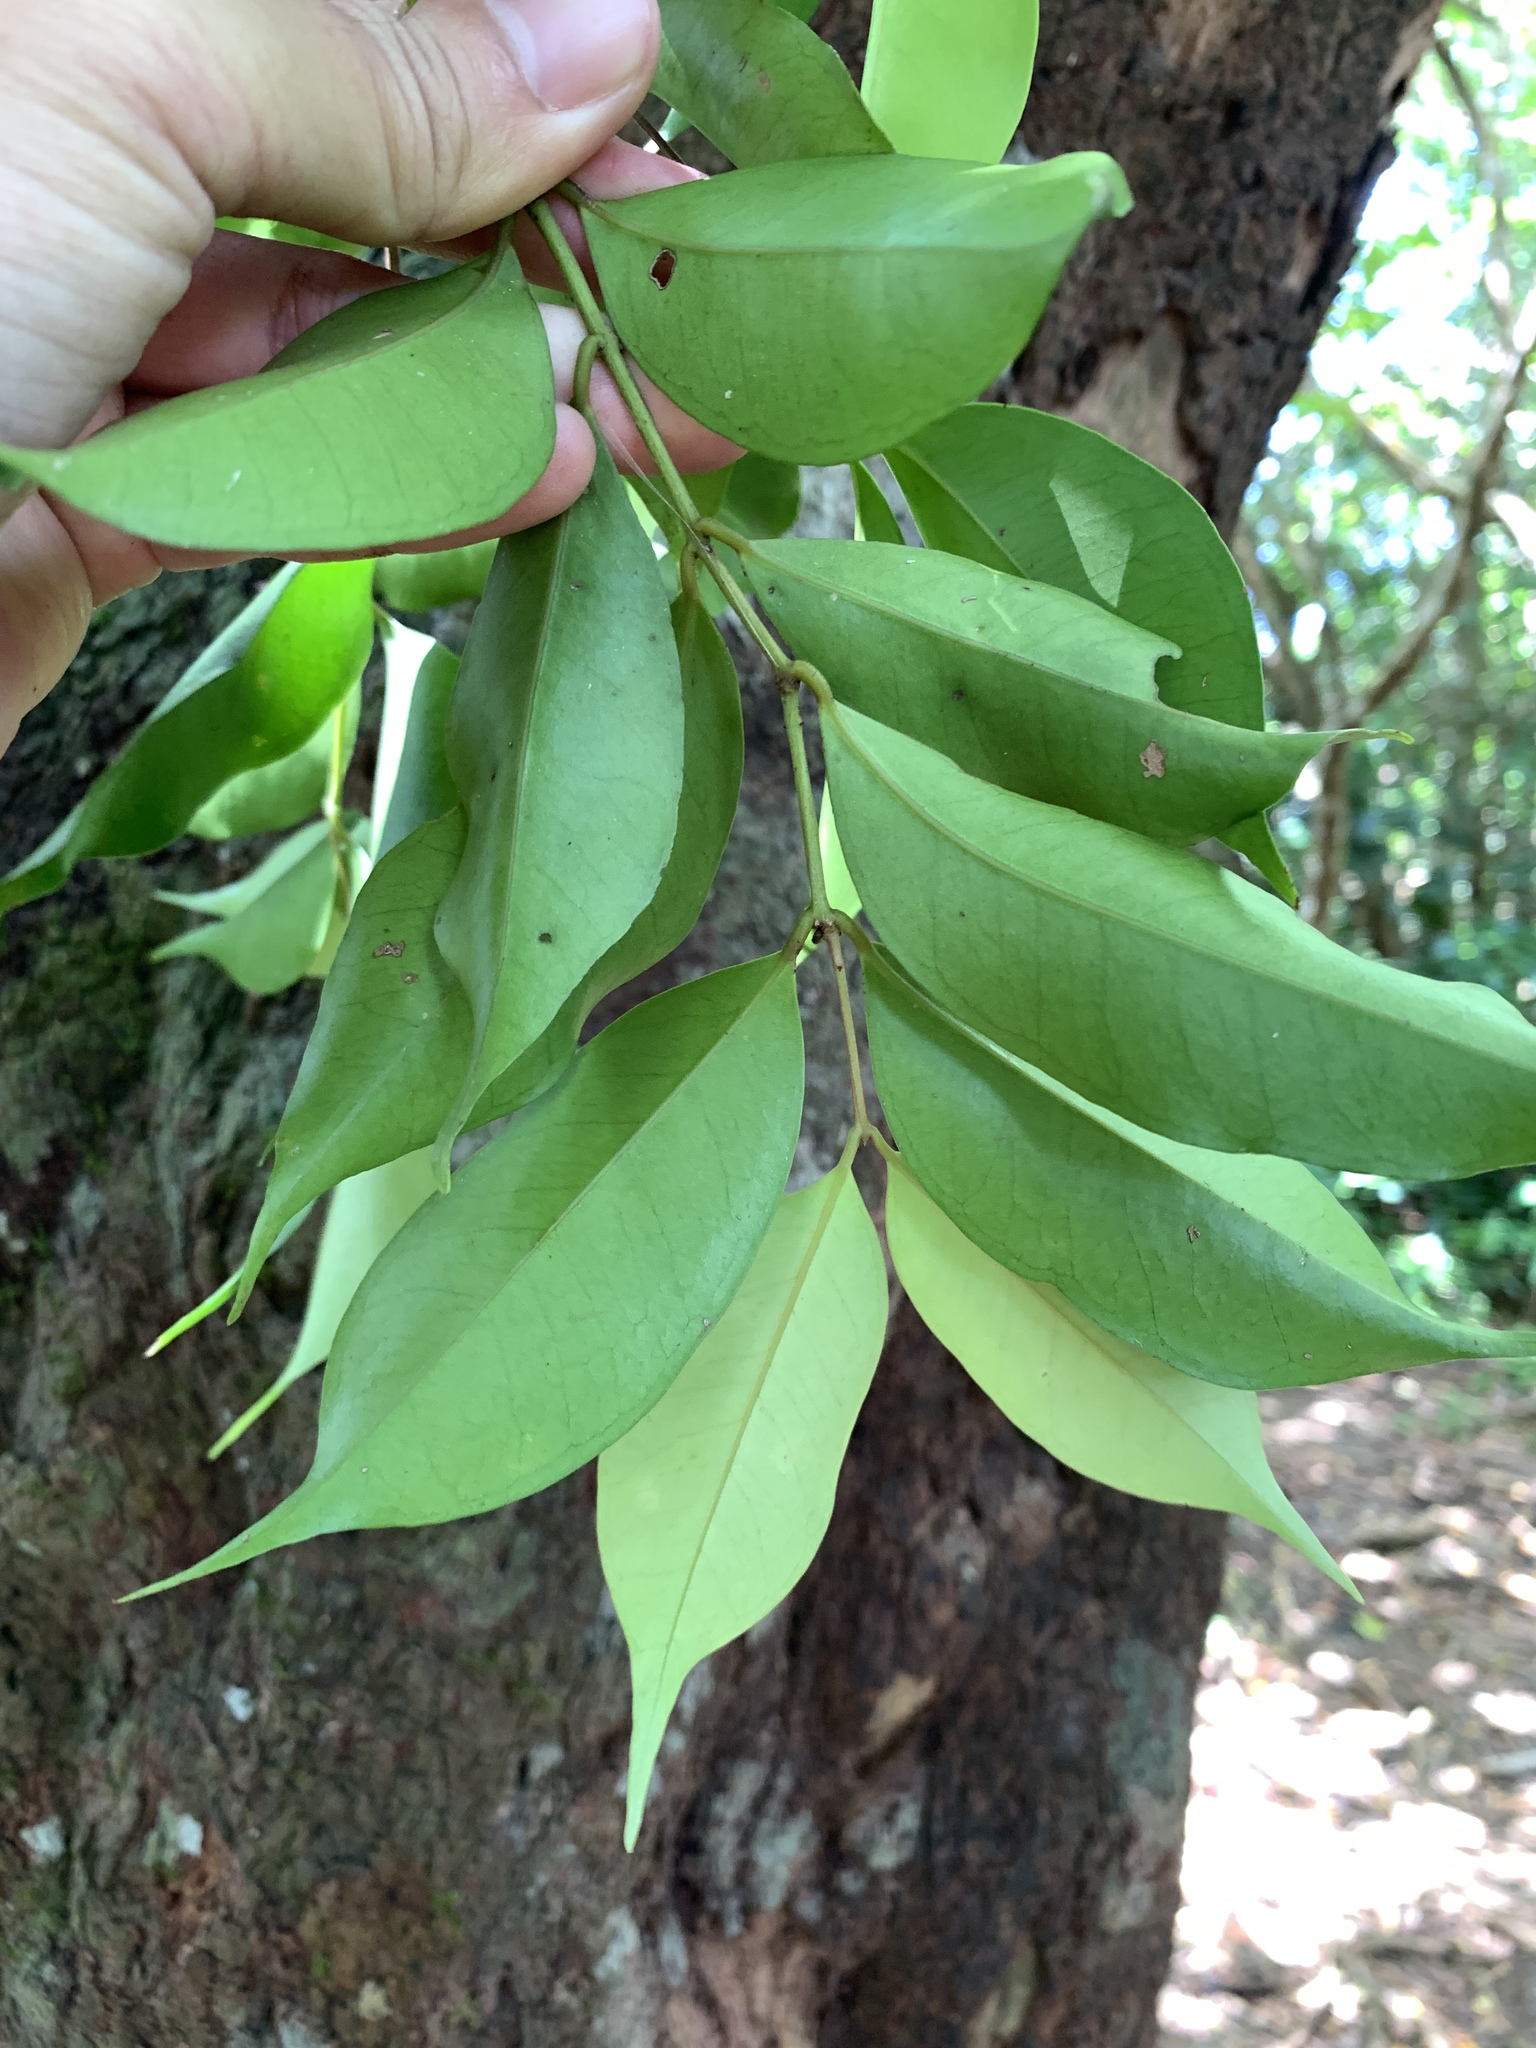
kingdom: Plantae
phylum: Tracheophyta
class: Magnoliopsida
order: Myrtales
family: Myrtaceae
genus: Syzygium
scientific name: Syzygium acuminatissimum
